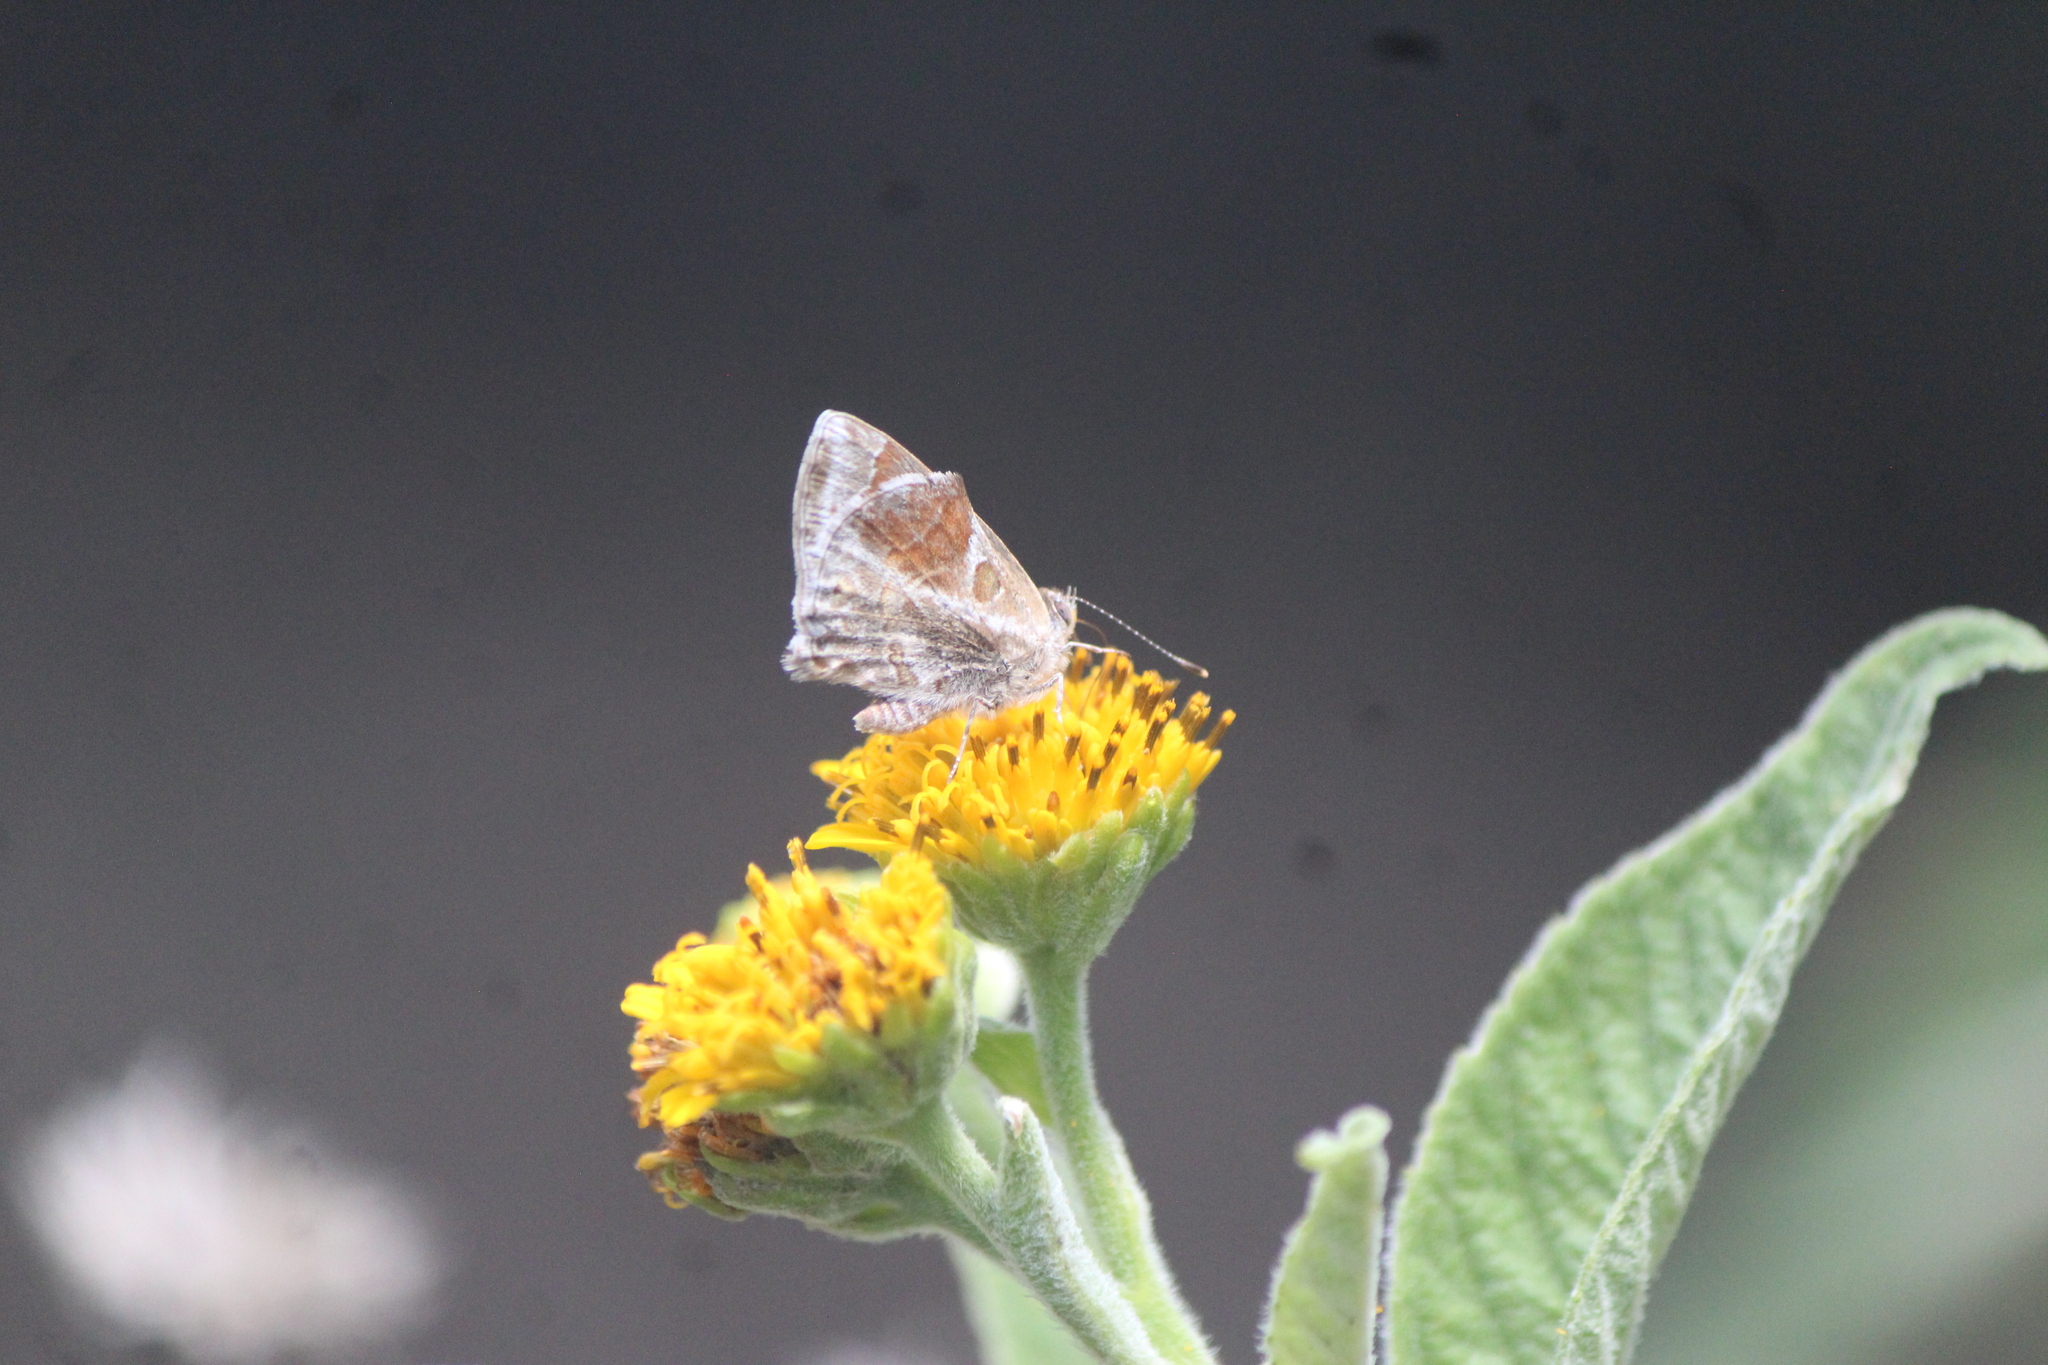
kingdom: Animalia
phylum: Arthropoda
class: Insecta
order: Lepidoptera
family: Lycaenidae
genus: Strymon
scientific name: Strymon bazochii
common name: Lantana scrub-hairstreak
